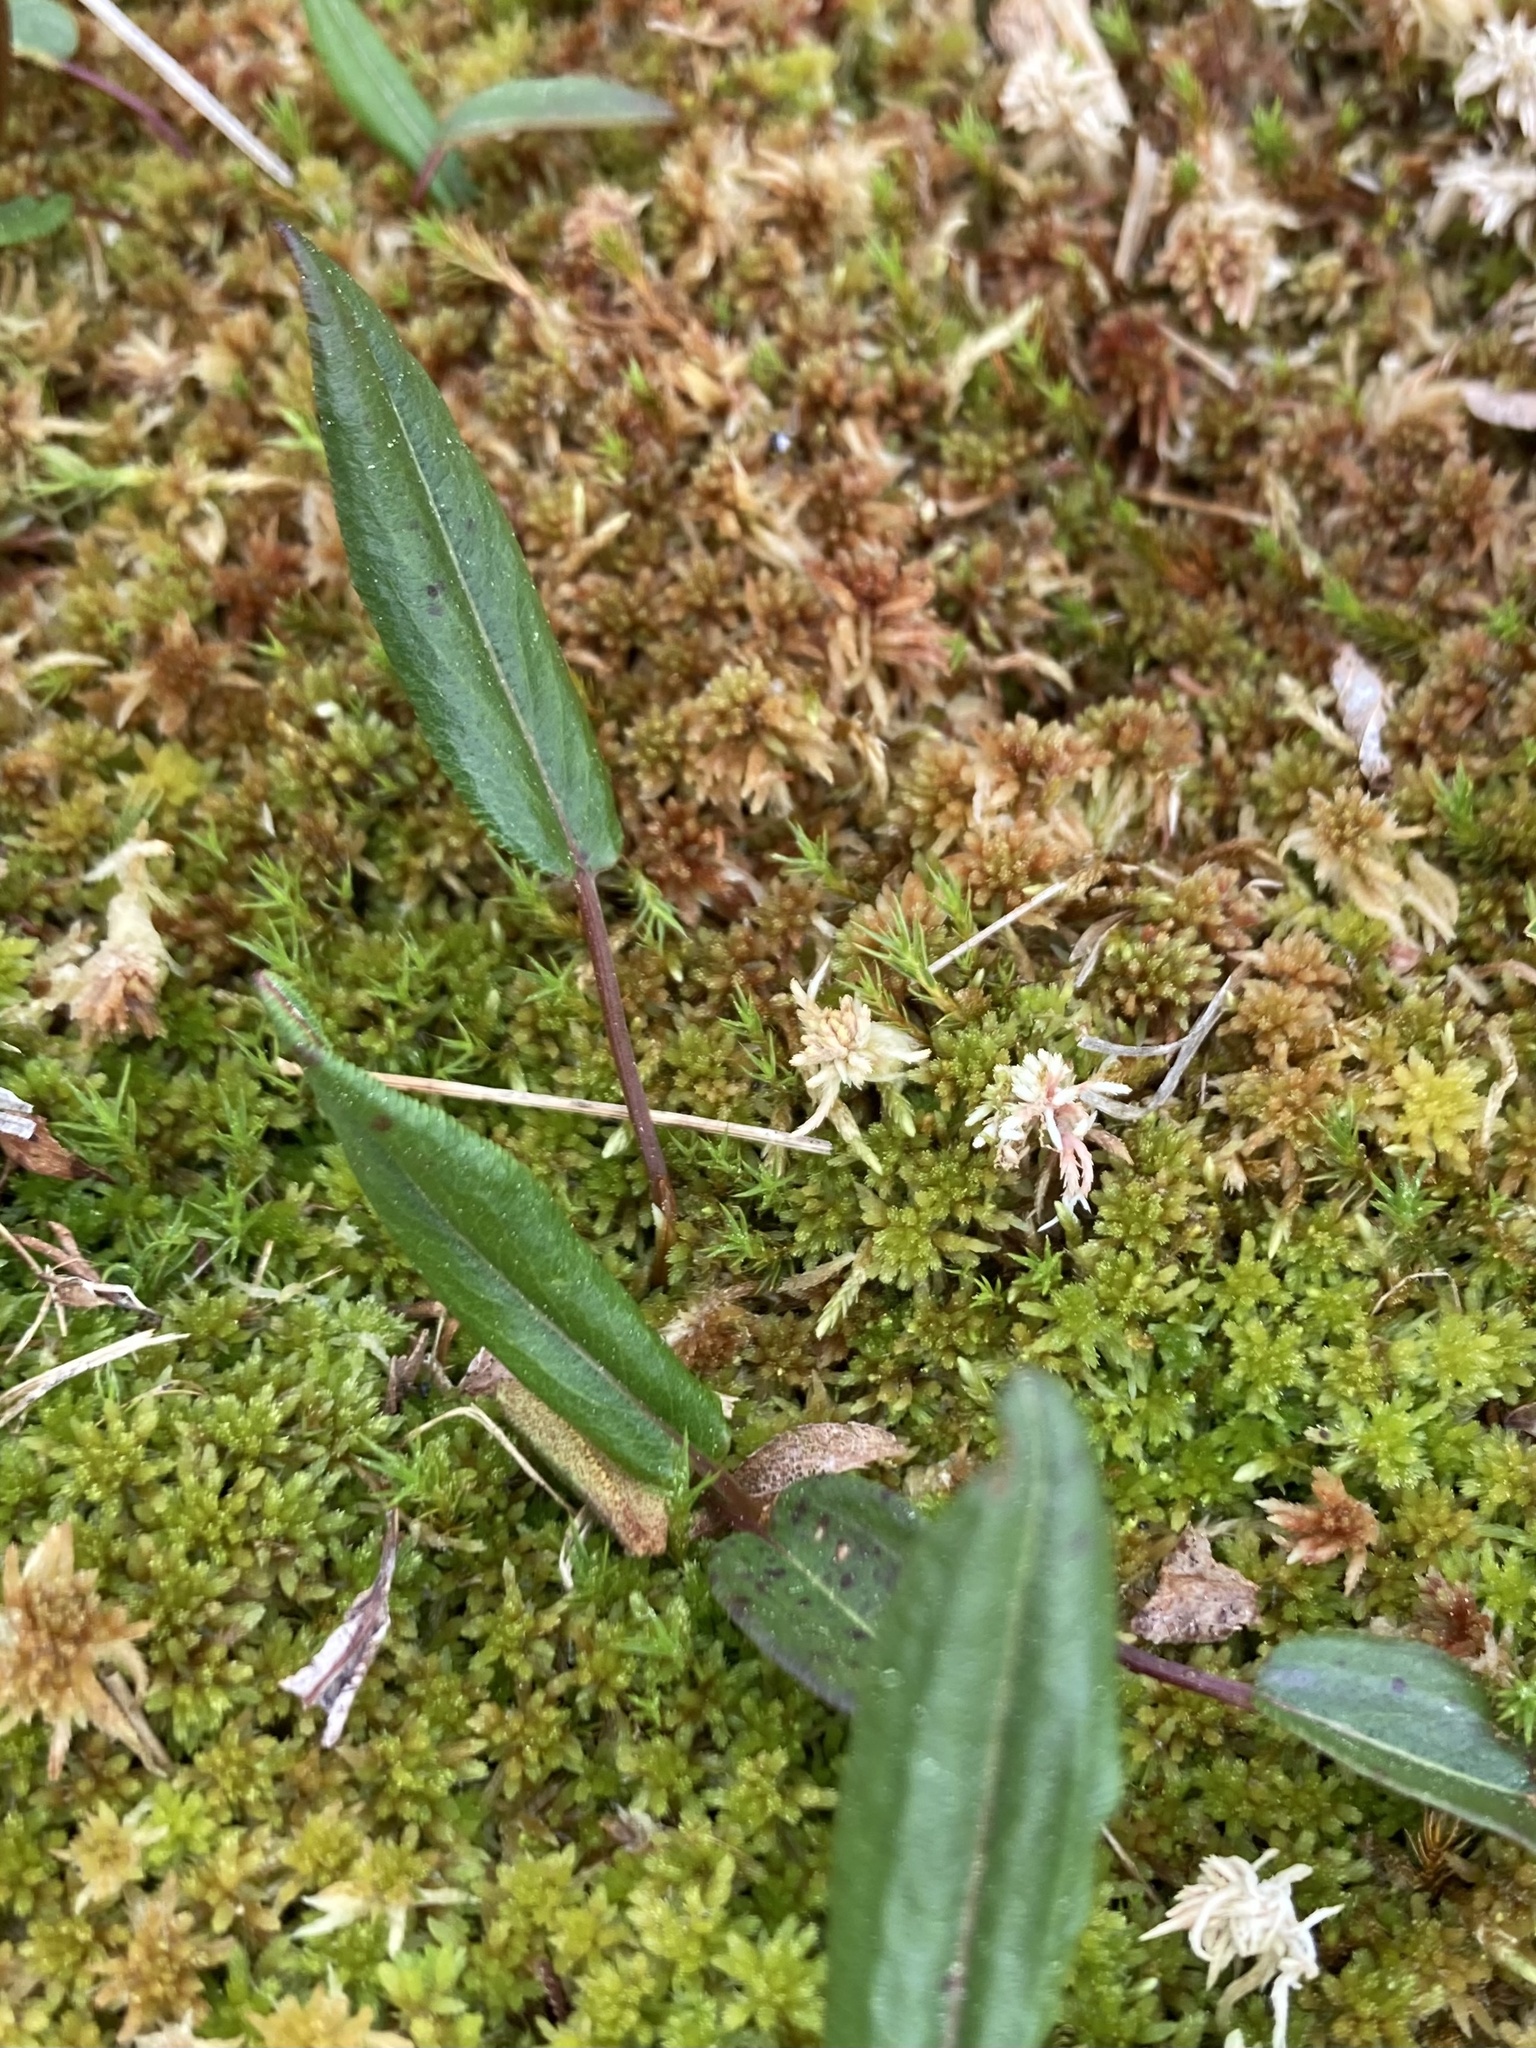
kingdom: Plantae
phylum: Tracheophyta
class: Magnoliopsida
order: Caryophyllales
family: Polygonaceae
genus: Bistorta
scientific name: Bistorta vivipara
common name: Alpine bistort
